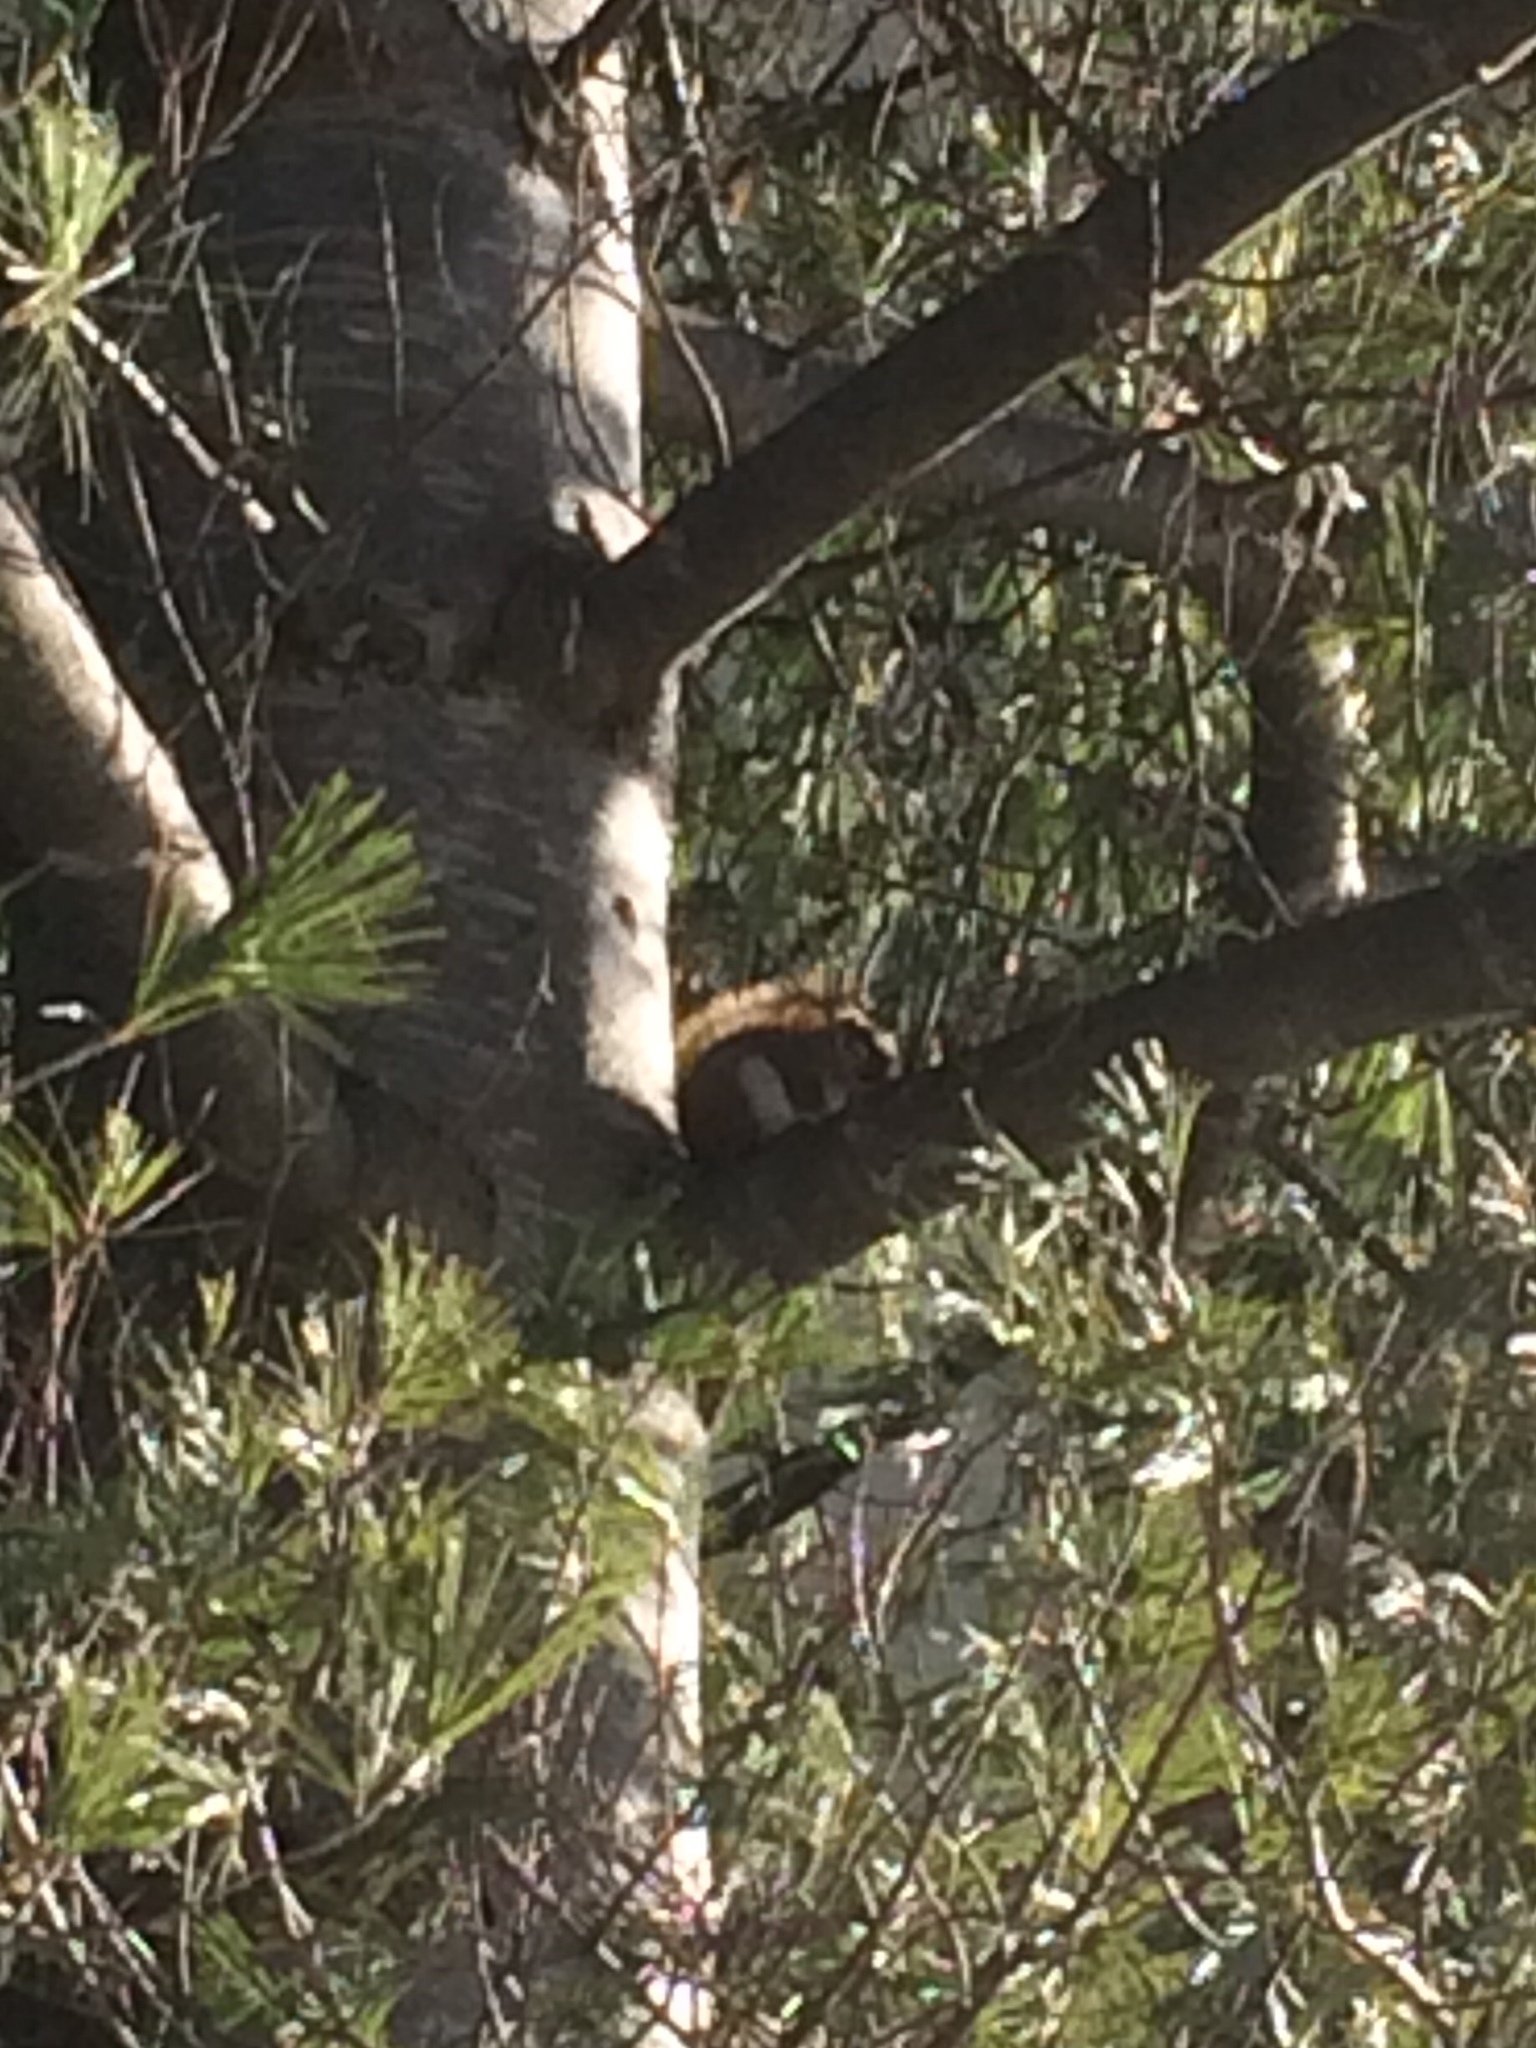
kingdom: Animalia
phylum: Chordata
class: Mammalia
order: Rodentia
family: Sciuridae
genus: Tamiasciurus
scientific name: Tamiasciurus hudsonicus
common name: Red squirrel
